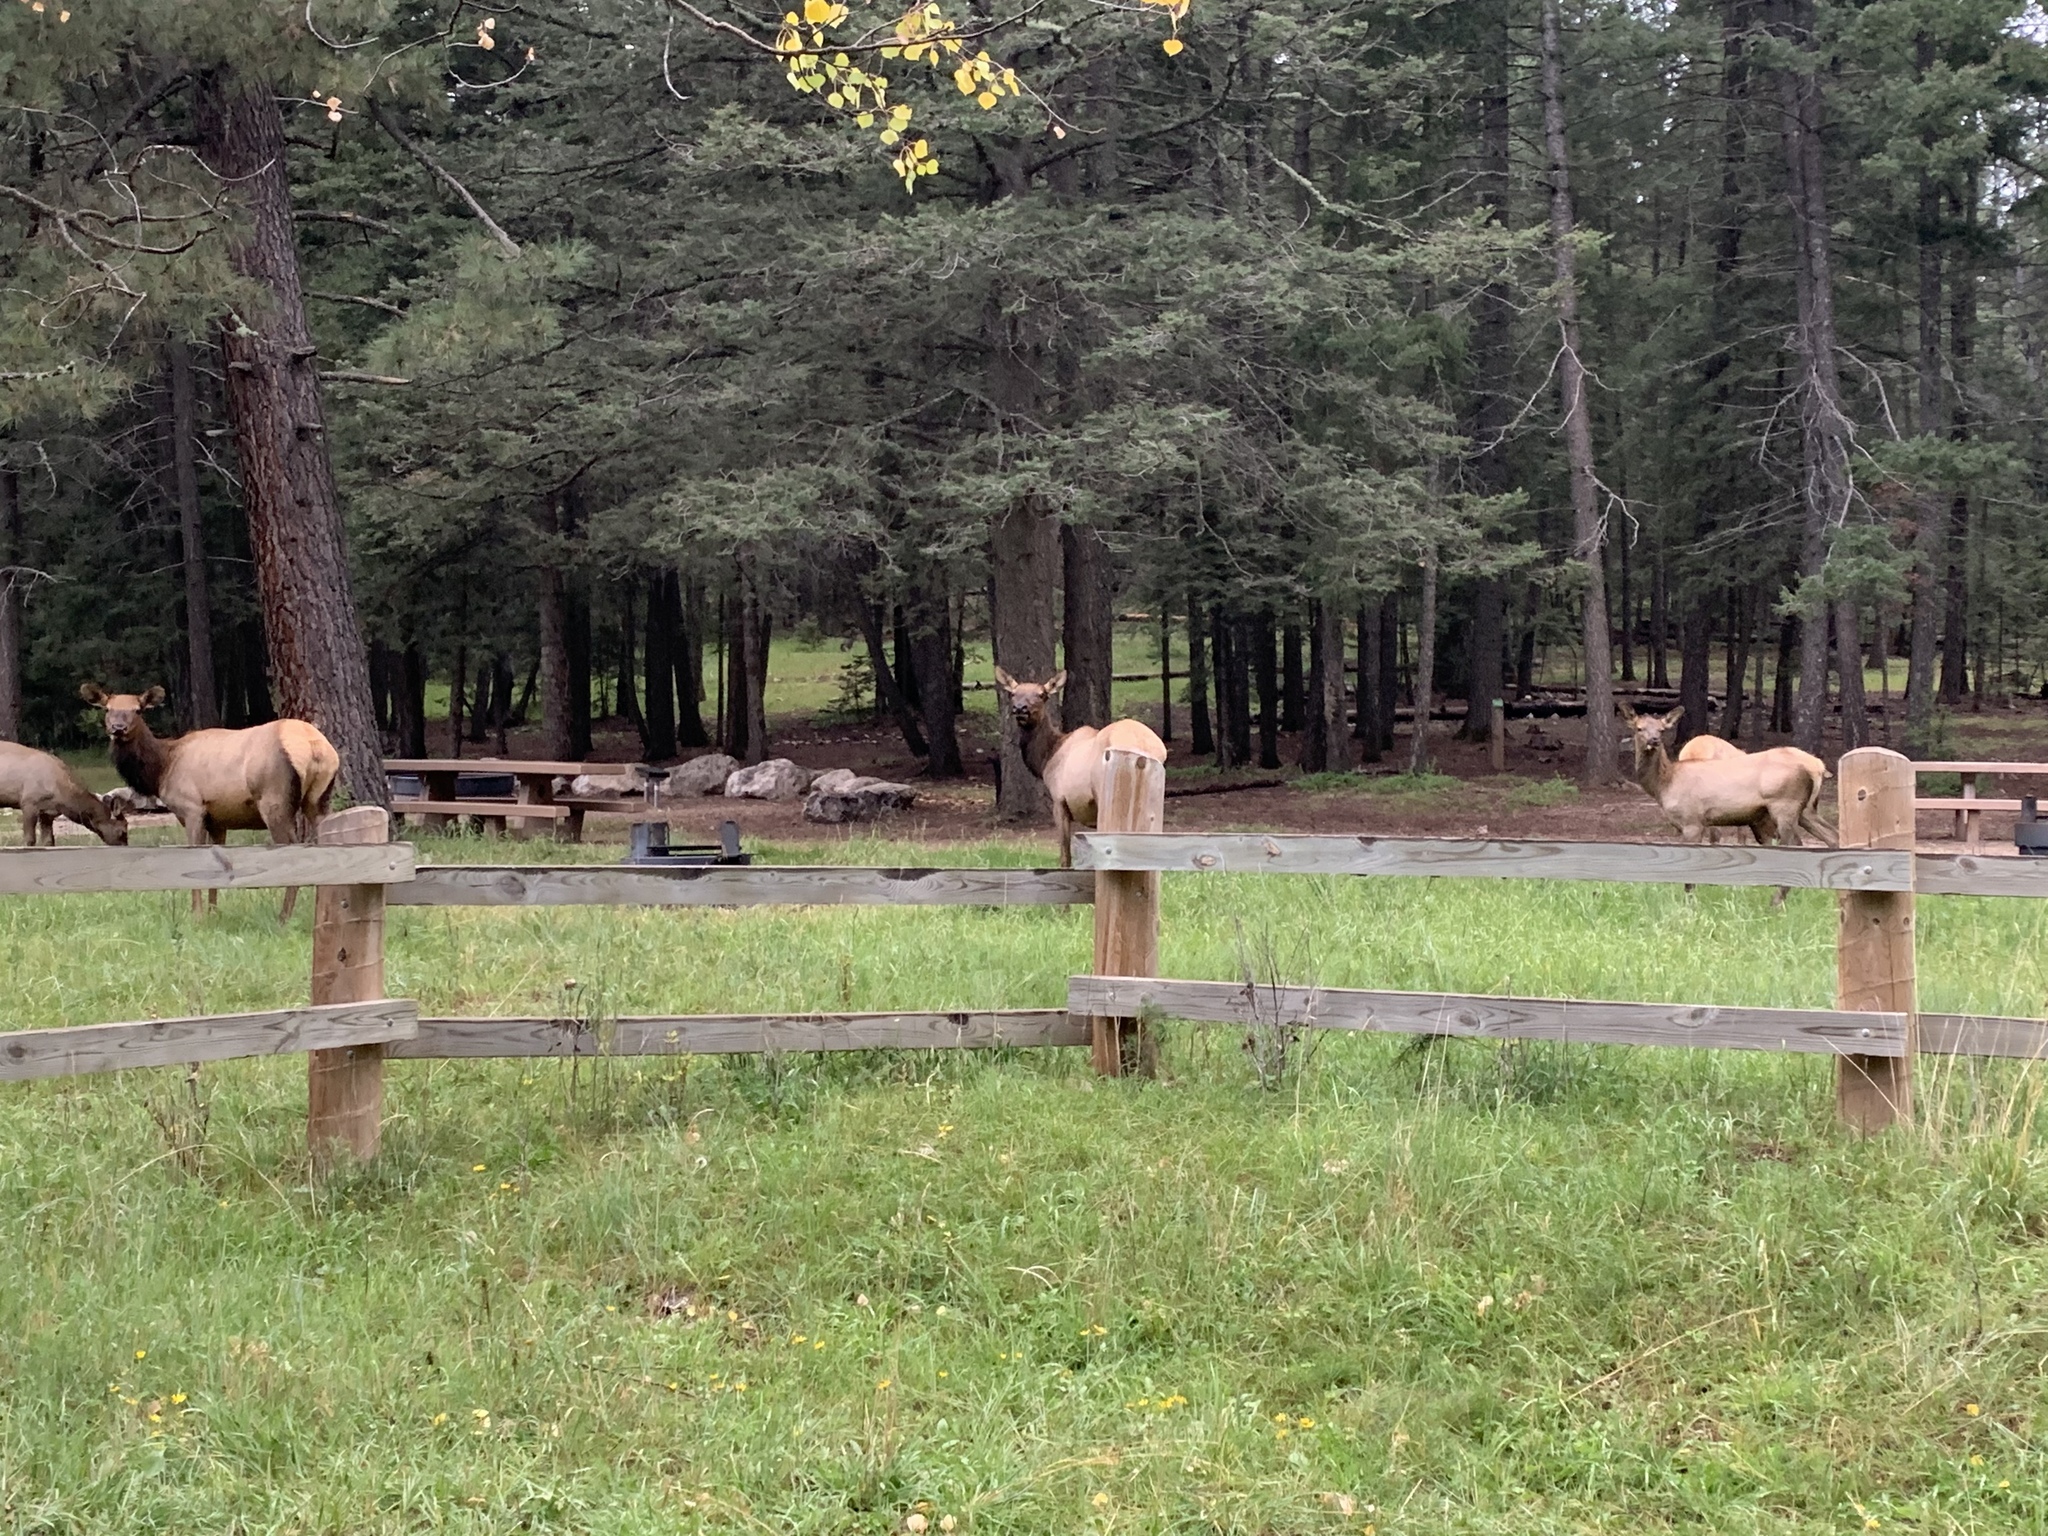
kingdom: Animalia
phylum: Chordata
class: Mammalia
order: Artiodactyla
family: Cervidae
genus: Cervus
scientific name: Cervus elaphus
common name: Red deer
